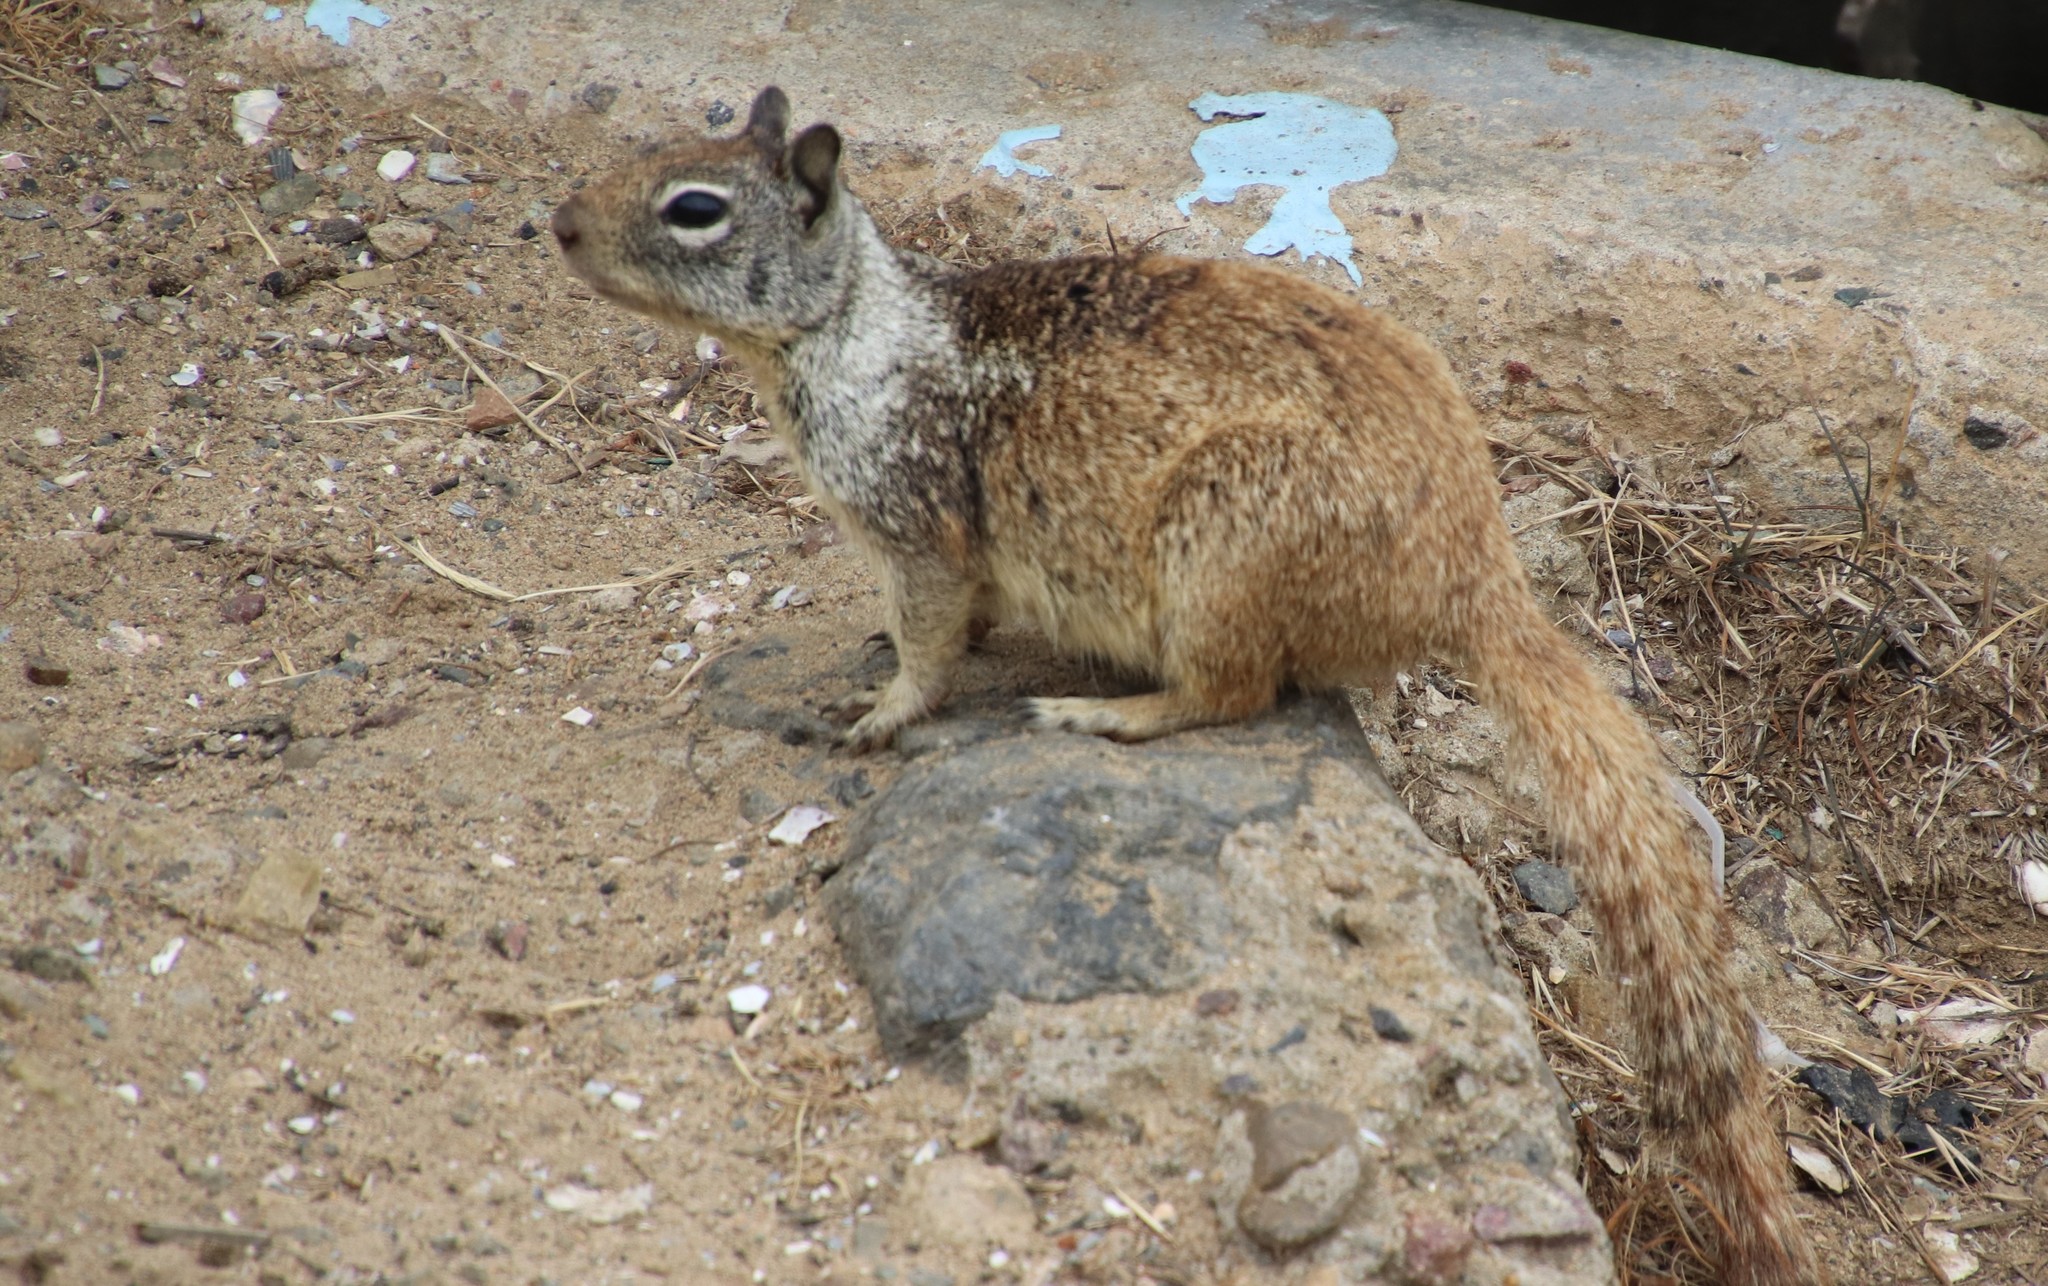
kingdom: Animalia
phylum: Chordata
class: Mammalia
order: Rodentia
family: Sciuridae
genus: Otospermophilus
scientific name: Otospermophilus beecheyi
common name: California ground squirrel
